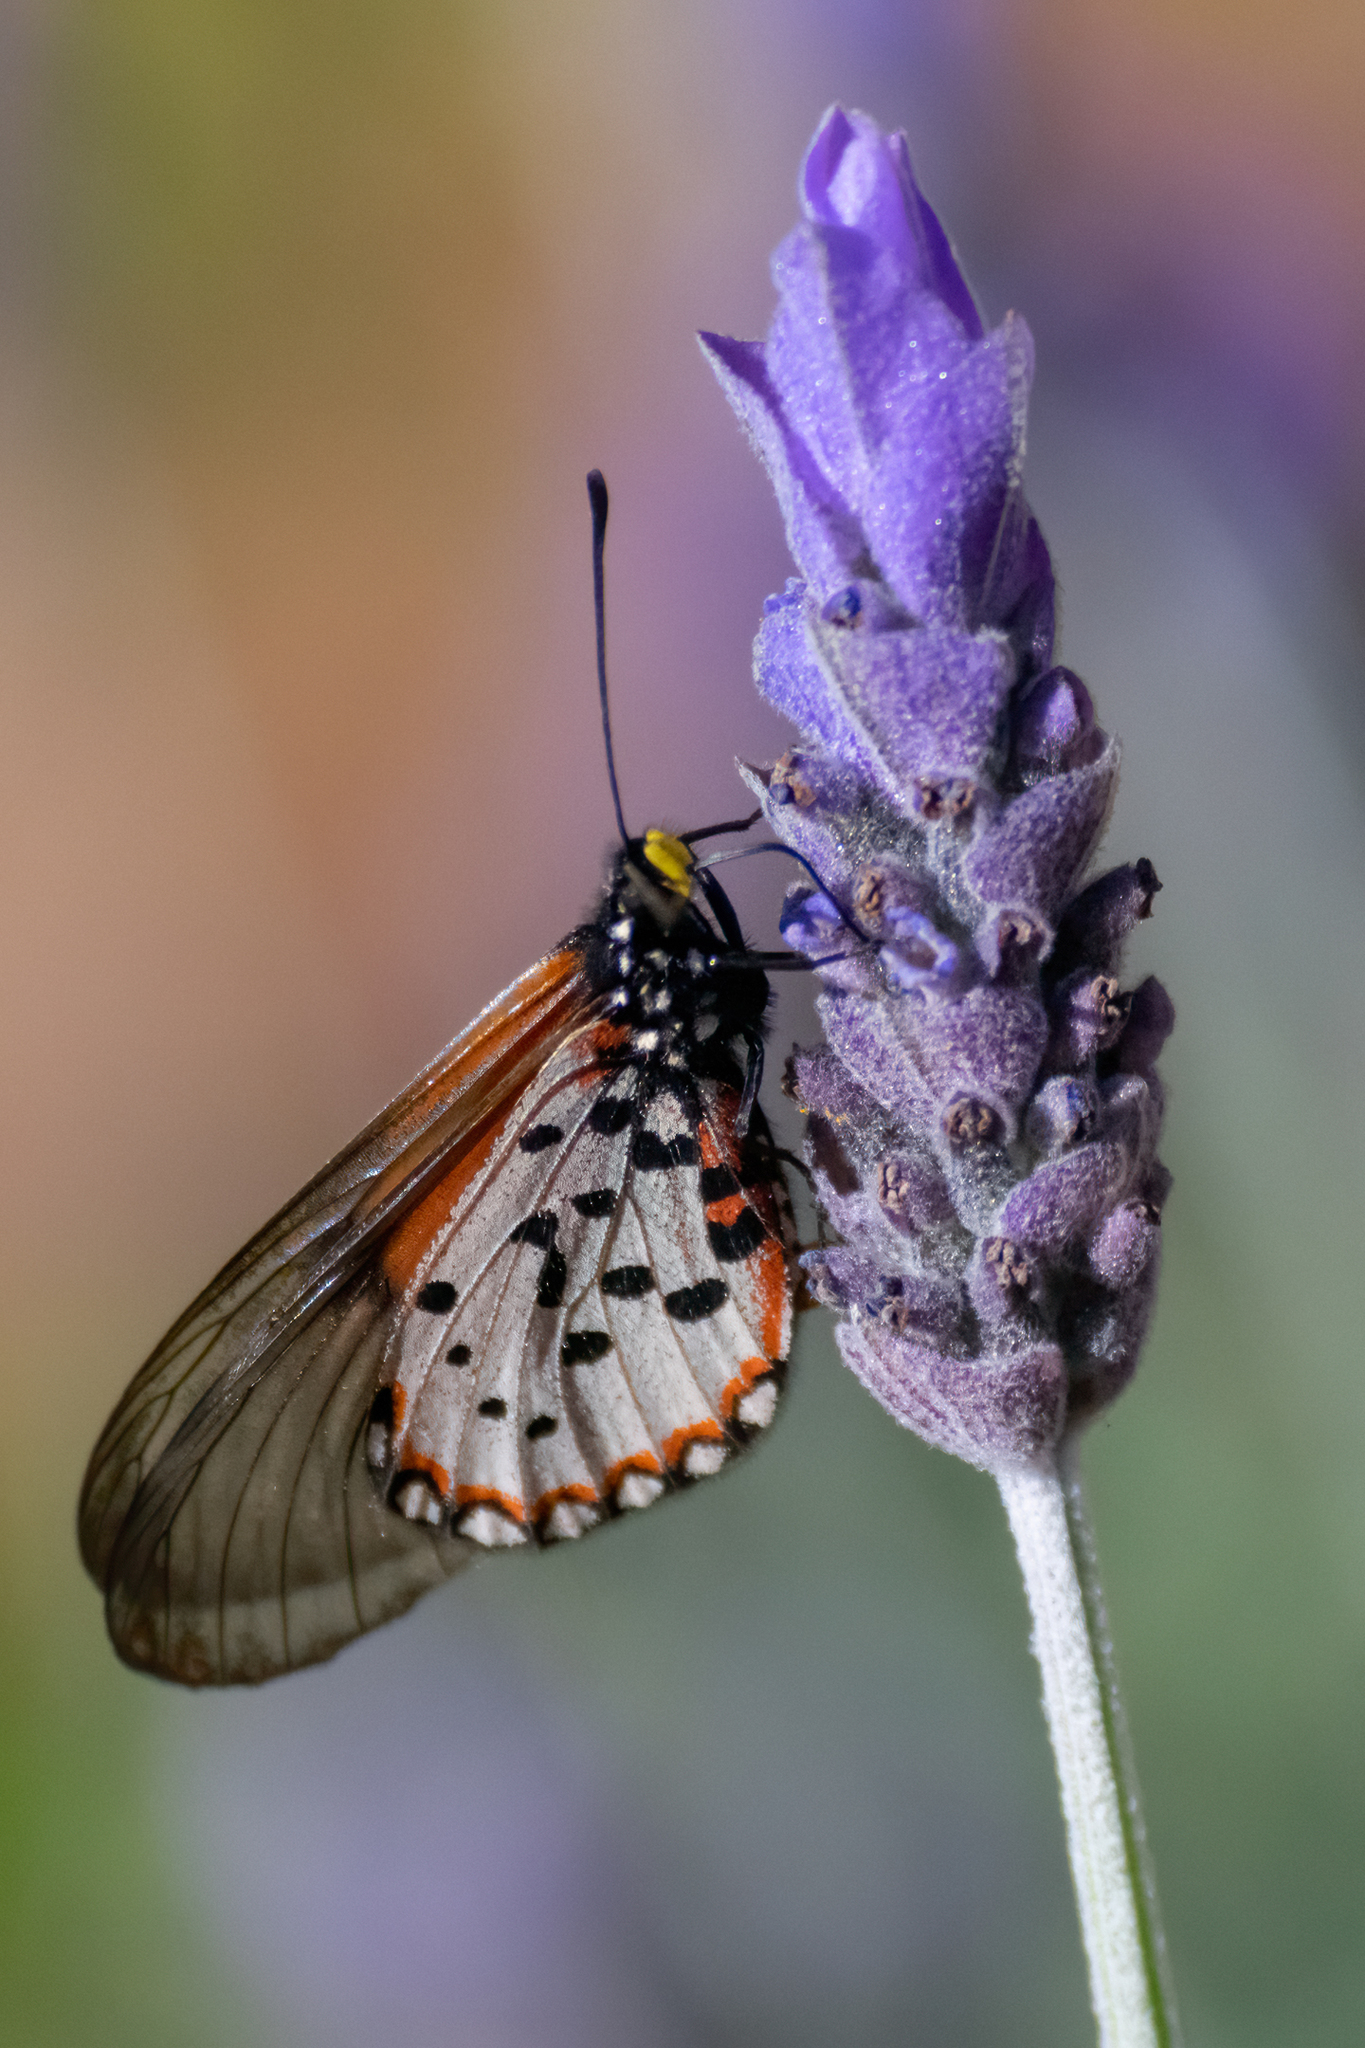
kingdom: Animalia
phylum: Arthropoda
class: Insecta
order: Lepidoptera
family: Nymphalidae
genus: Acraea
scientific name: Acraea horta
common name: Garden acraea
